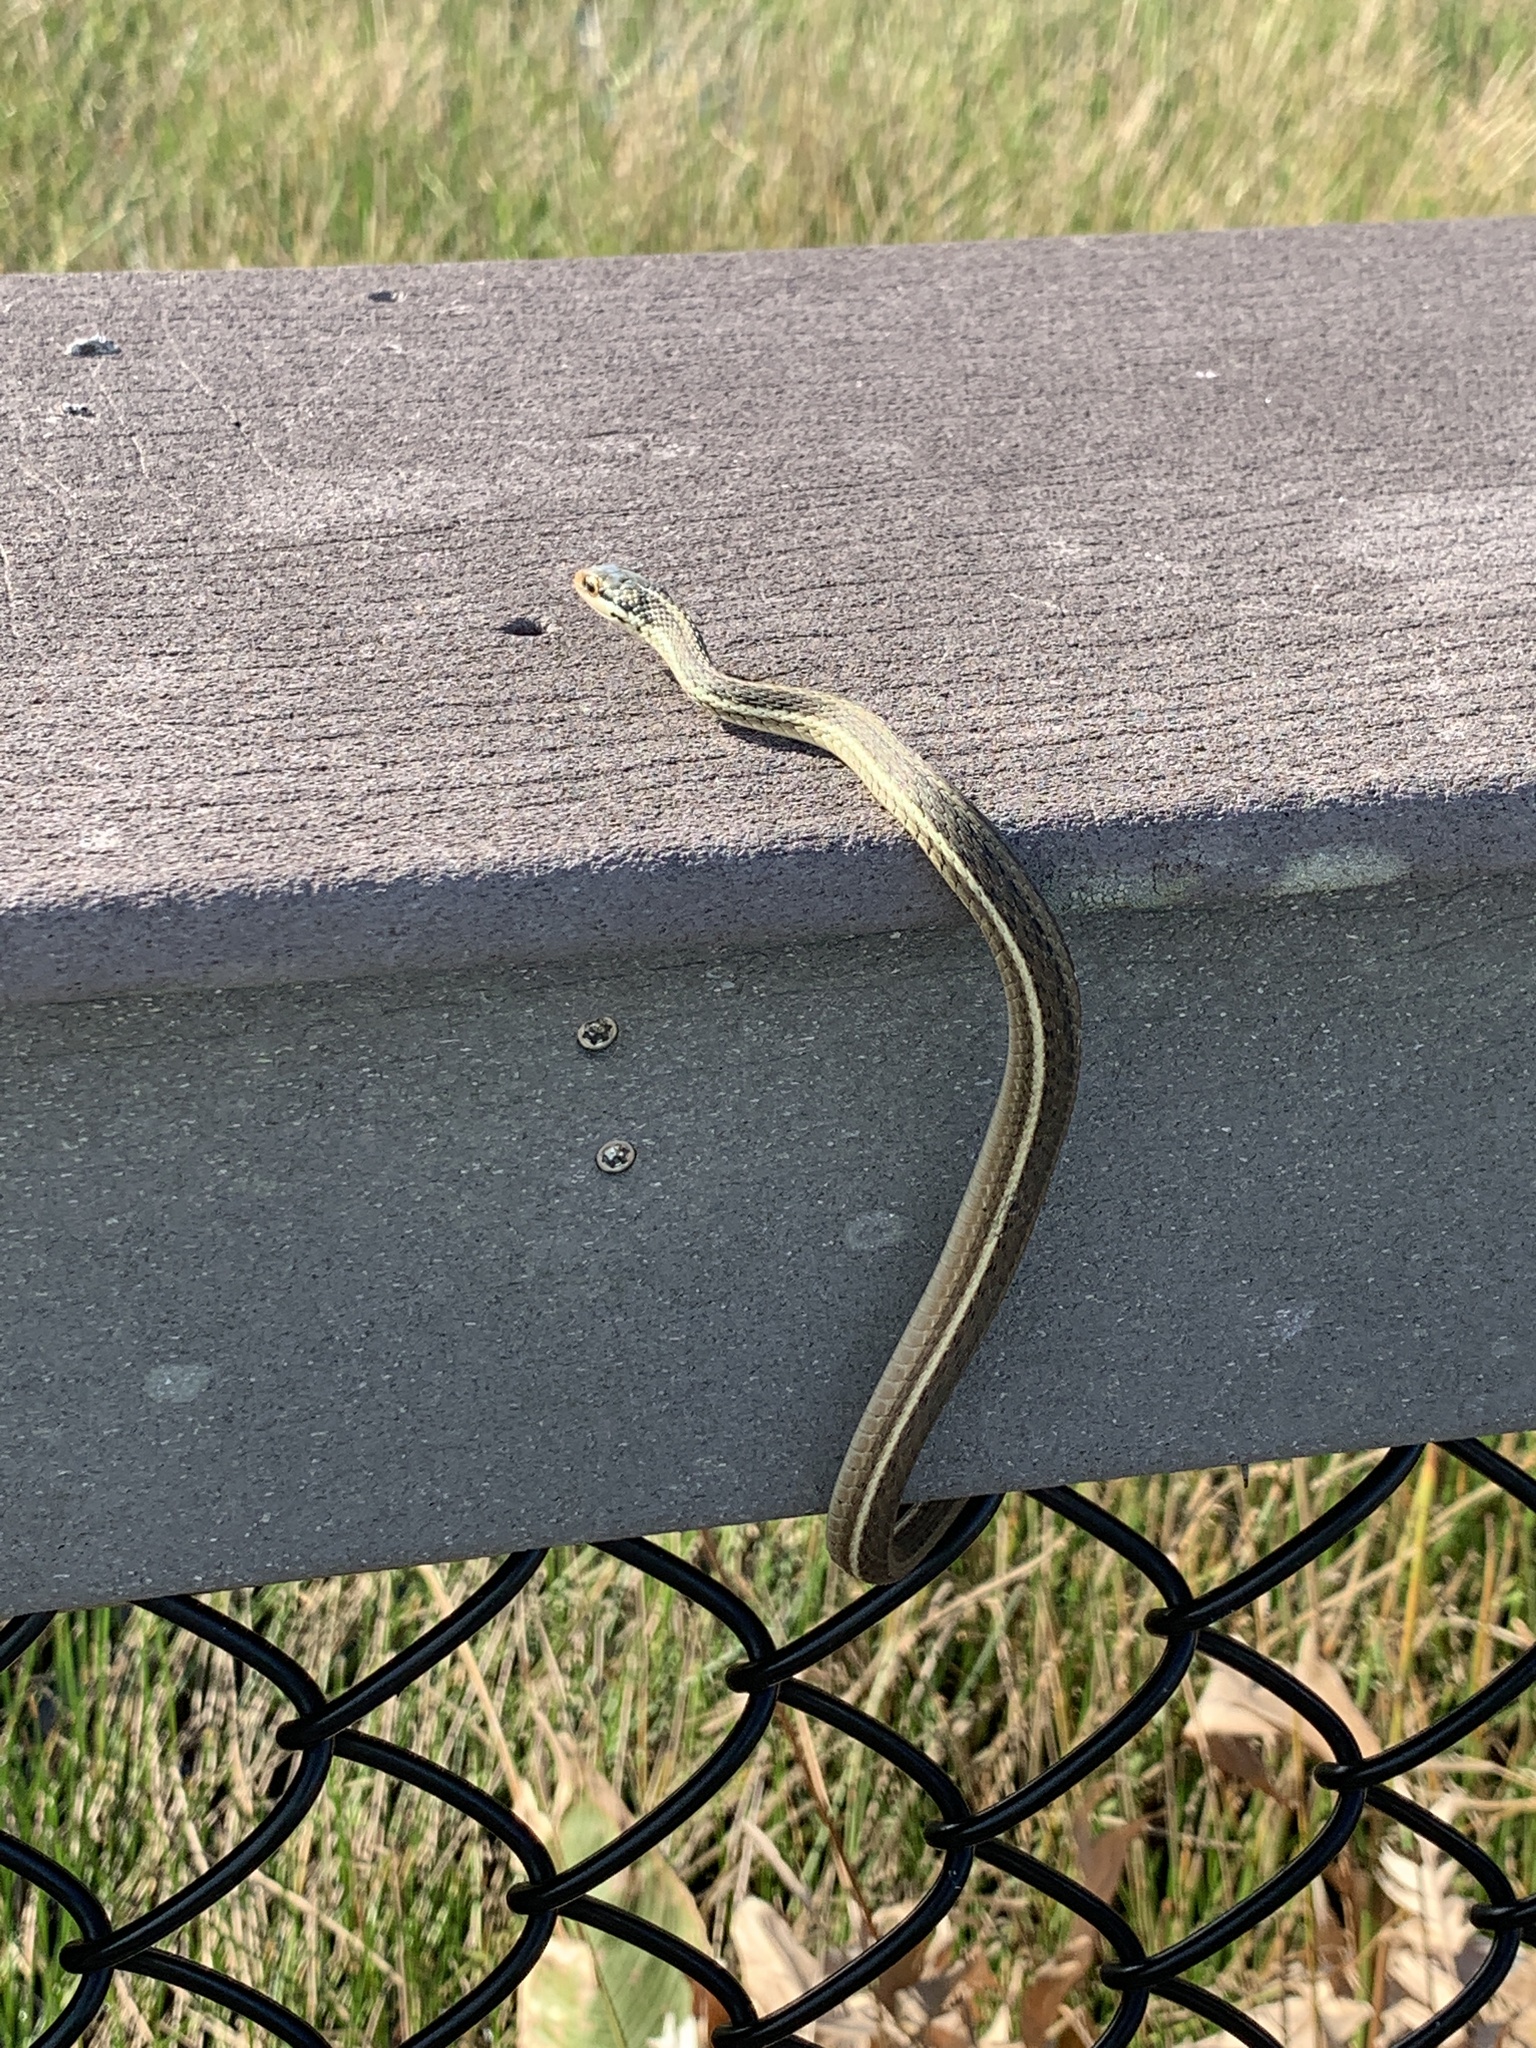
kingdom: Animalia
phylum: Chordata
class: Squamata
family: Colubridae
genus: Thamnophis
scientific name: Thamnophis saurita
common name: Eastern ribbonsnake
